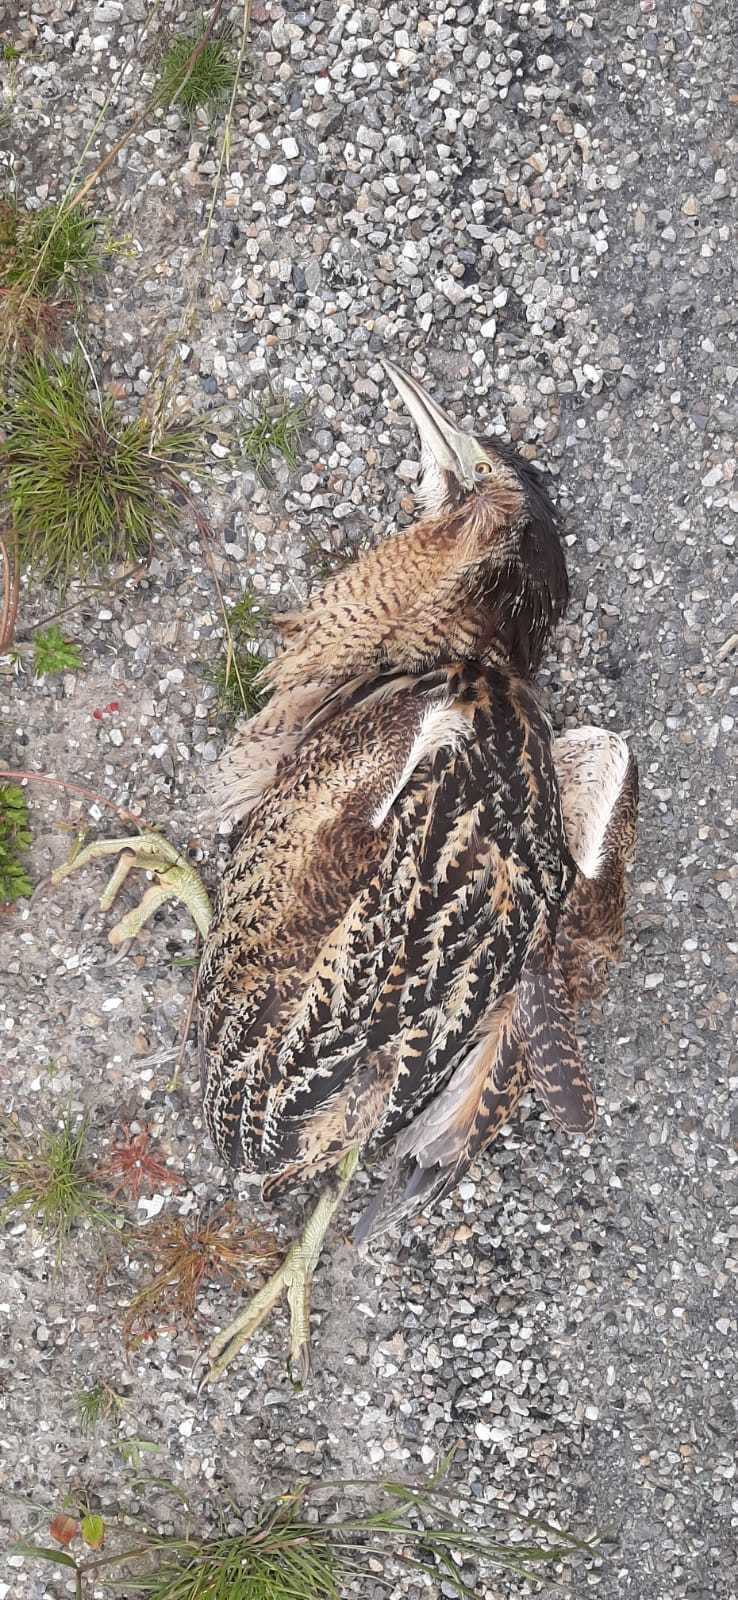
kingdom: Animalia
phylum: Chordata
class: Aves
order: Pelecaniformes
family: Ardeidae
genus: Botaurus
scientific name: Botaurus stellaris
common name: Eurasian bittern
